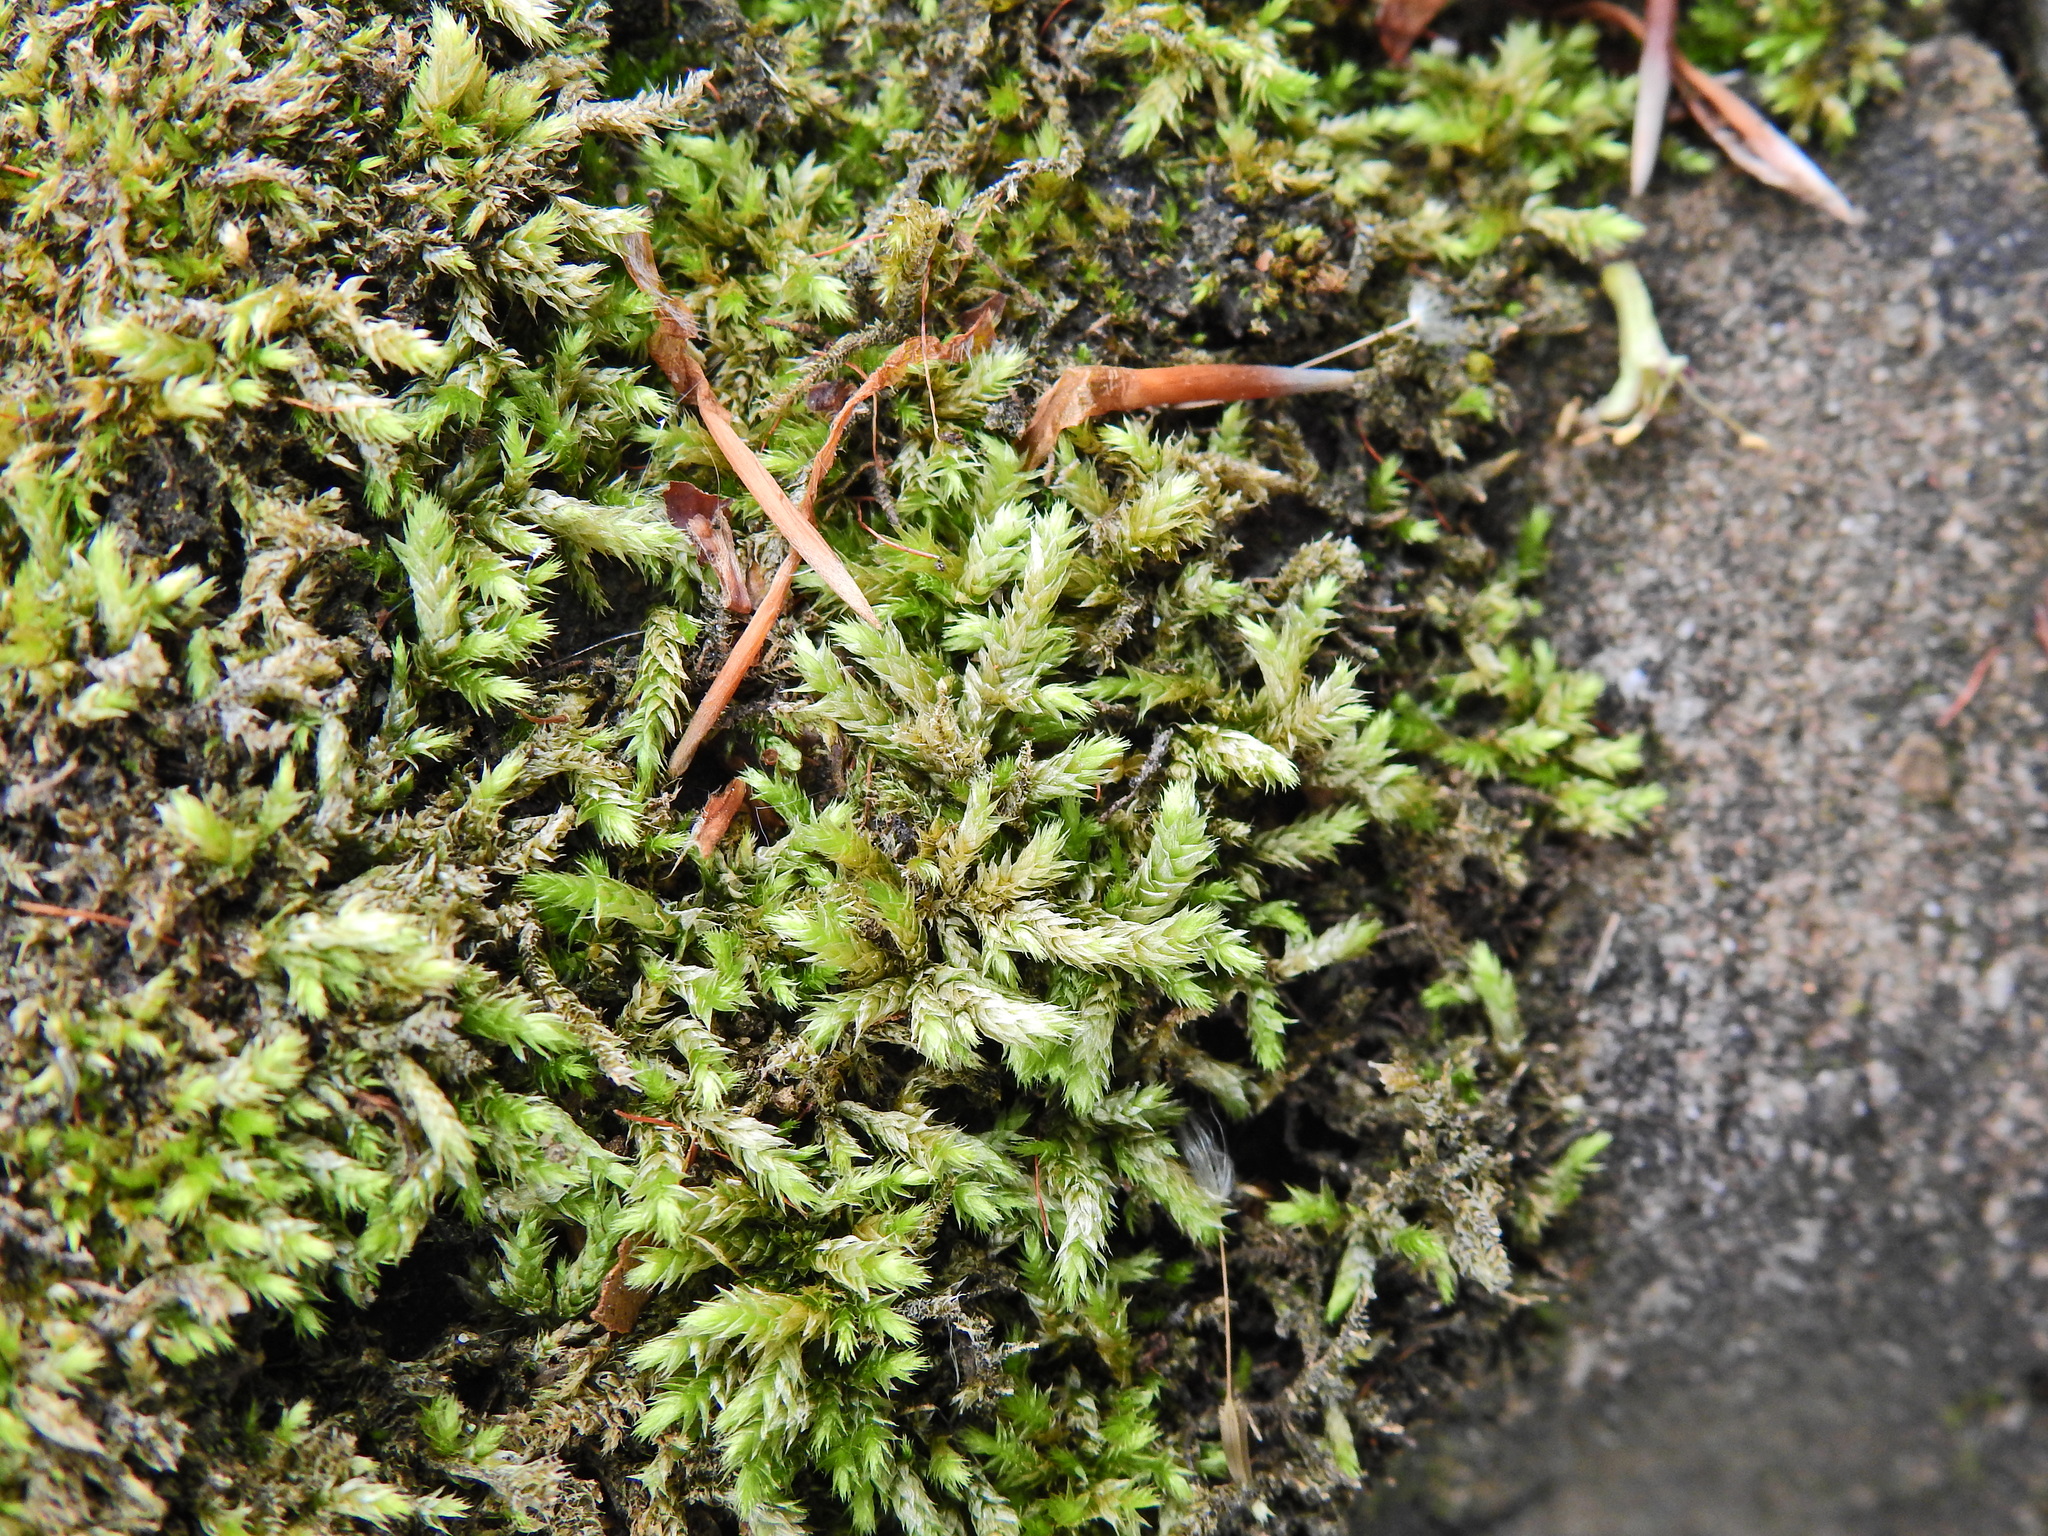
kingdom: Plantae
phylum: Bryophyta
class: Bryopsida
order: Hypnales
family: Brachytheciaceae
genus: Brachythecium
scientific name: Brachythecium rutabulum
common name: Rough-stalked feather-moss
